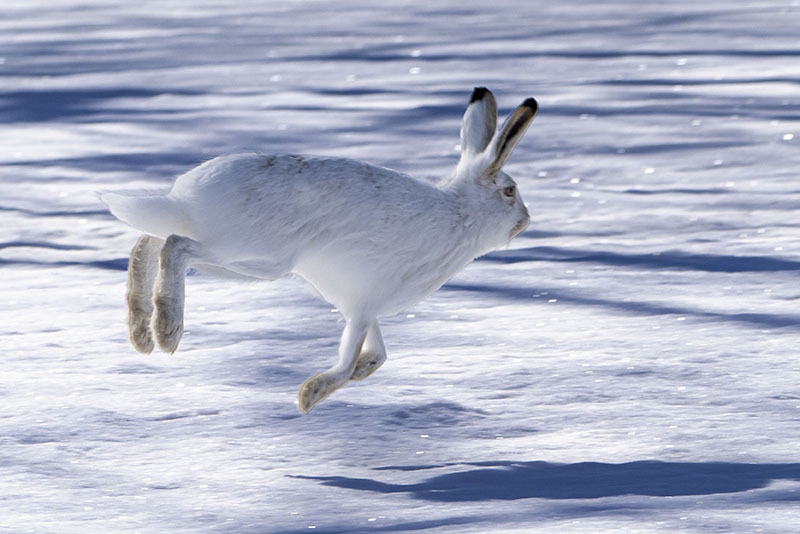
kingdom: Animalia
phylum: Chordata
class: Mammalia
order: Lagomorpha
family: Leporidae
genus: Lepus
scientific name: Lepus townsendii
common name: White-tailed jackrabbit
